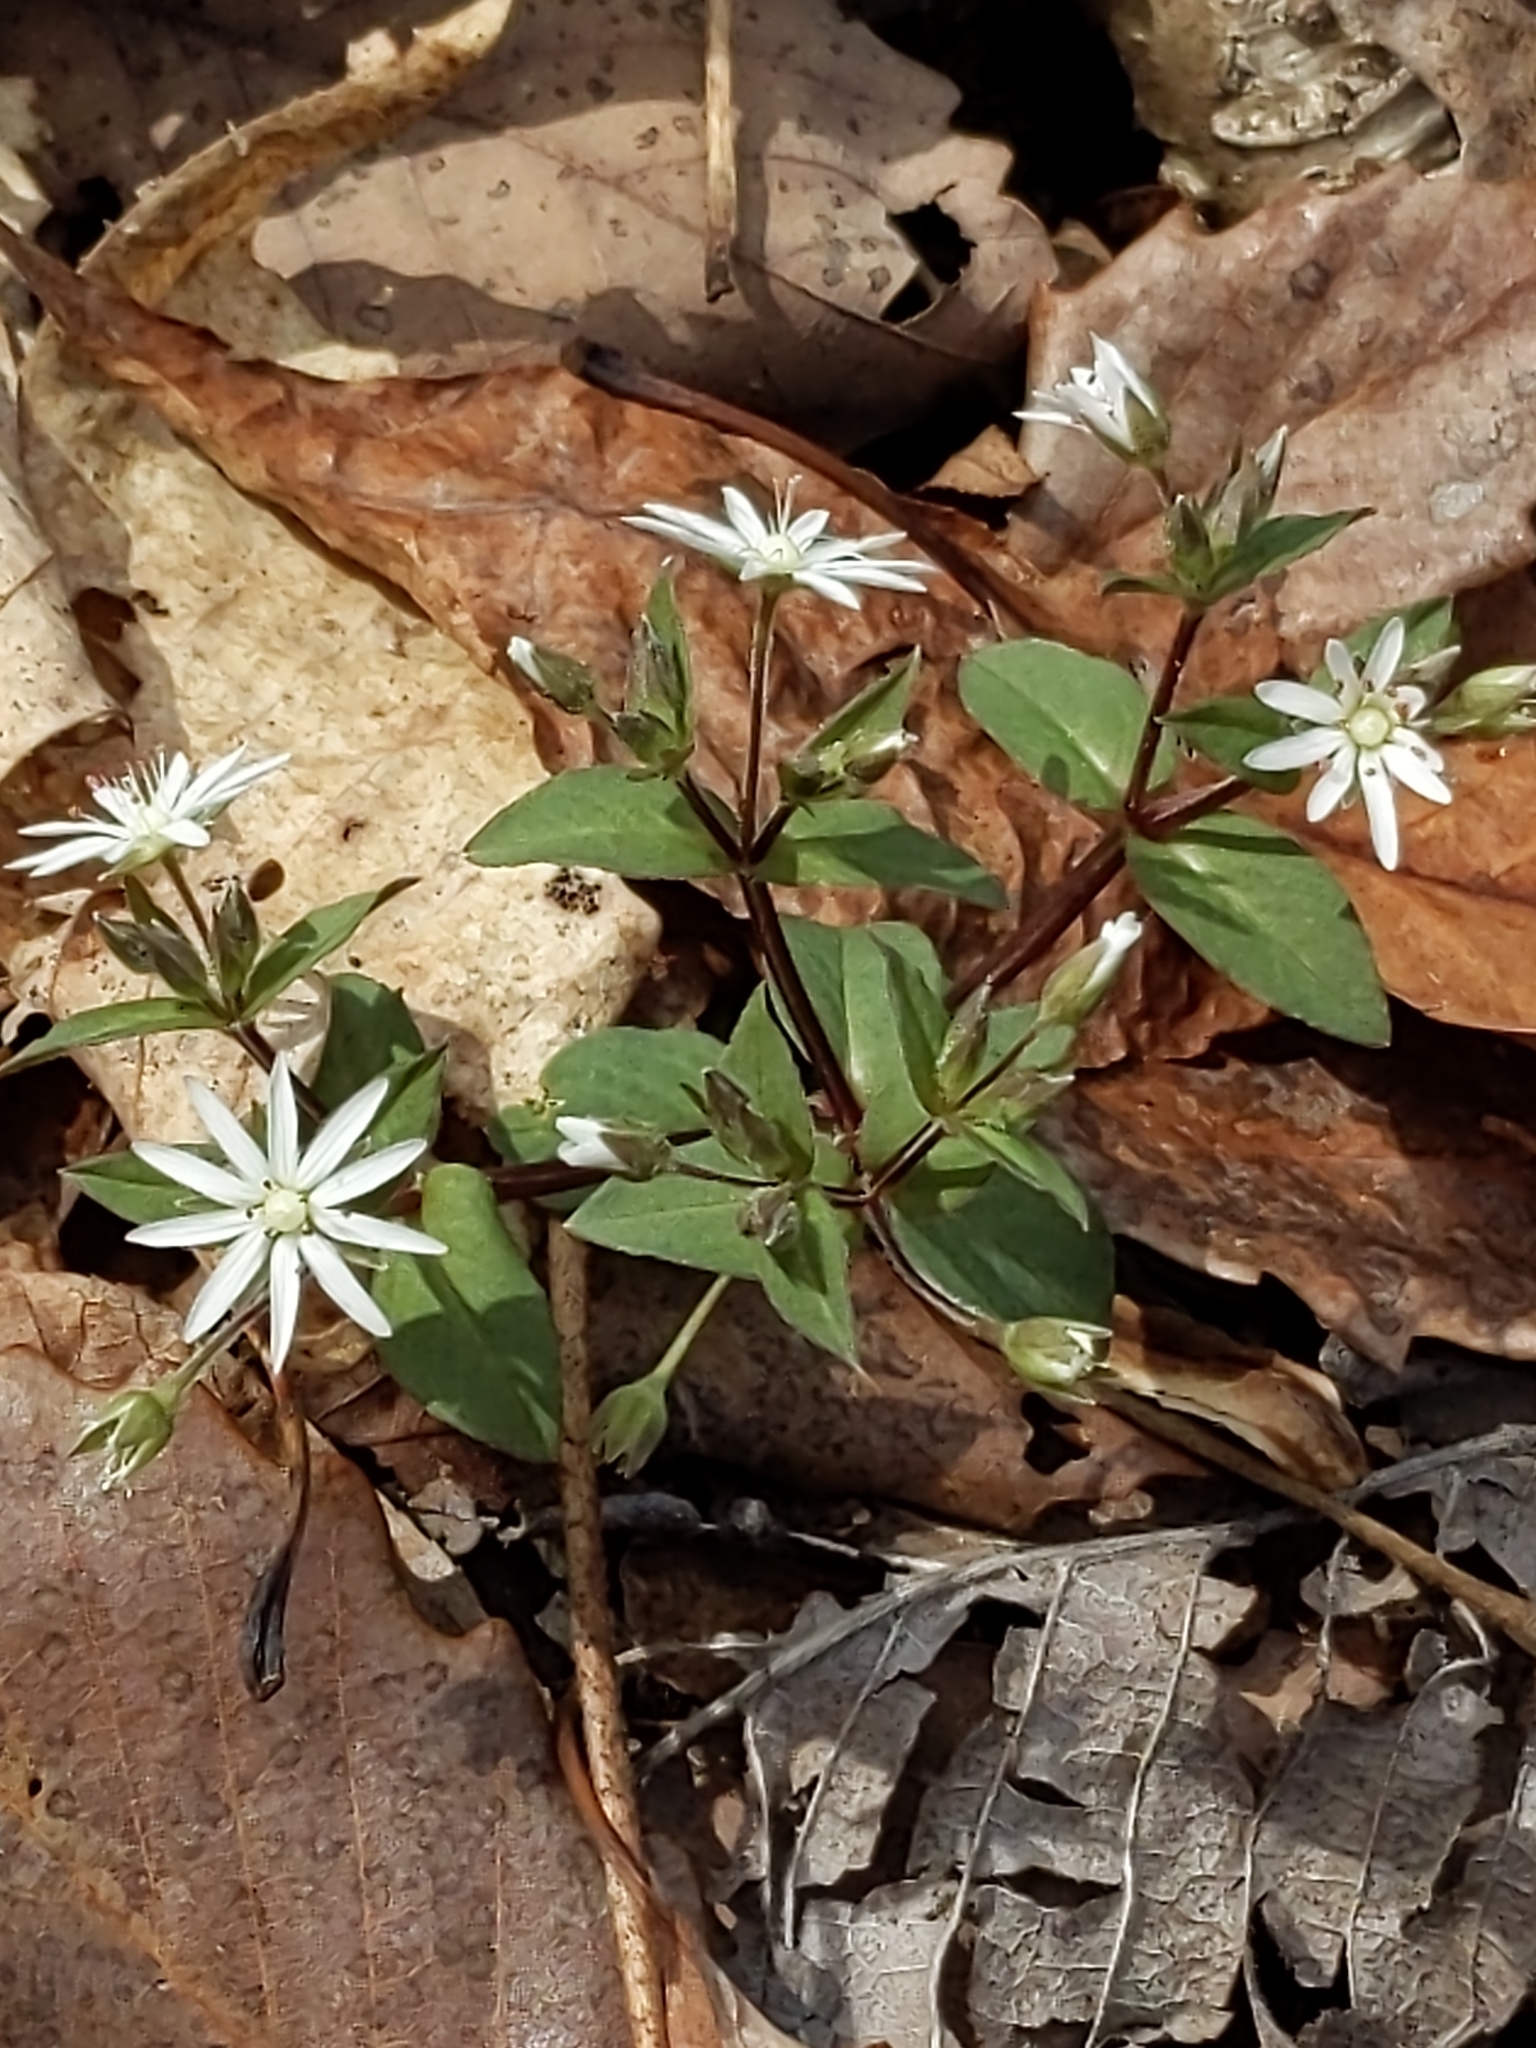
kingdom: Plantae
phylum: Tracheophyta
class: Magnoliopsida
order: Caryophyllales
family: Caryophyllaceae
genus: Stellaria
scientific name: Stellaria pubera
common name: Star chickweed
